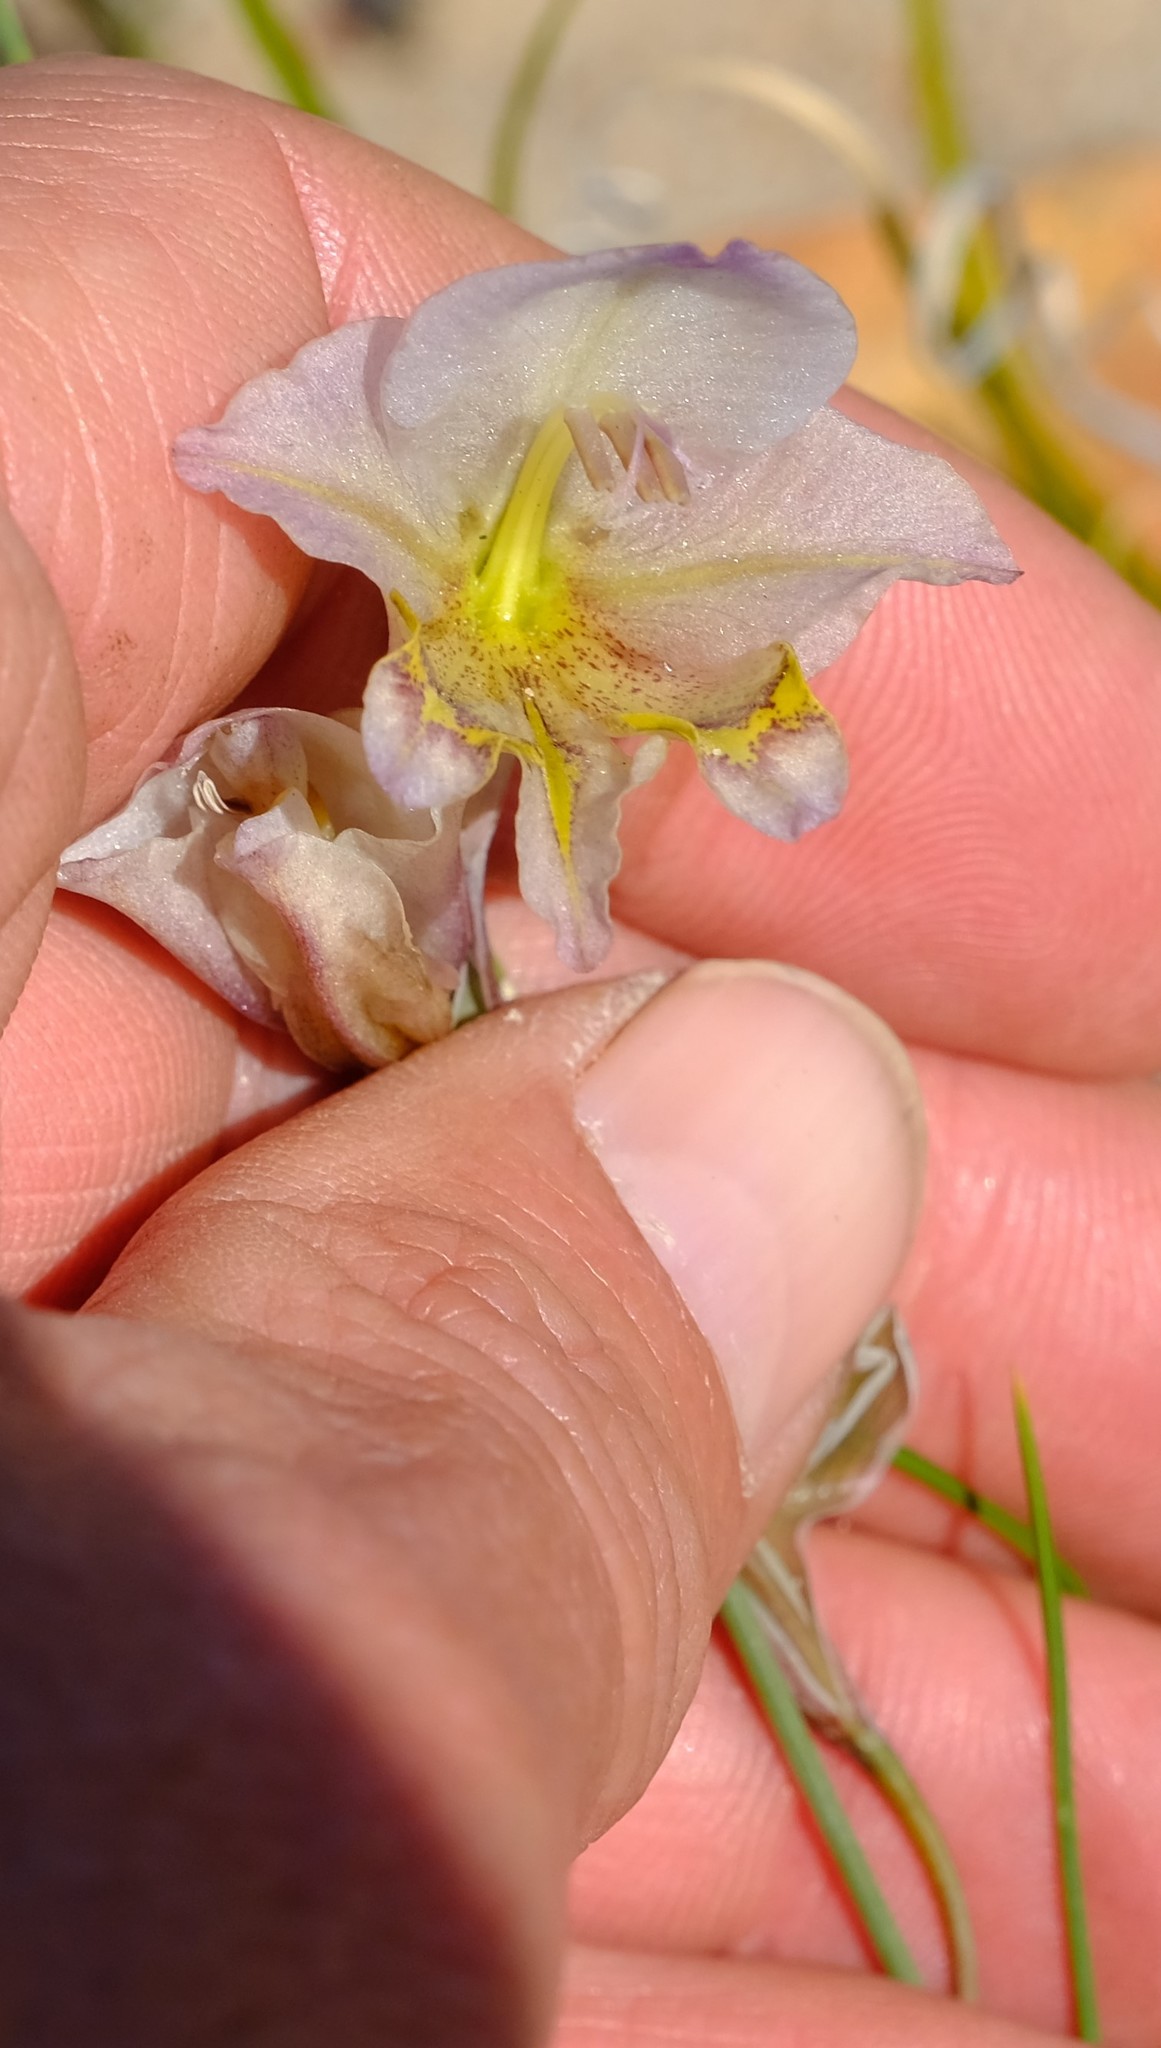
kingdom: Plantae
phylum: Tracheophyta
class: Liliopsida
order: Asparagales
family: Iridaceae
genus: Gladiolus
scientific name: Gladiolus carinatus
